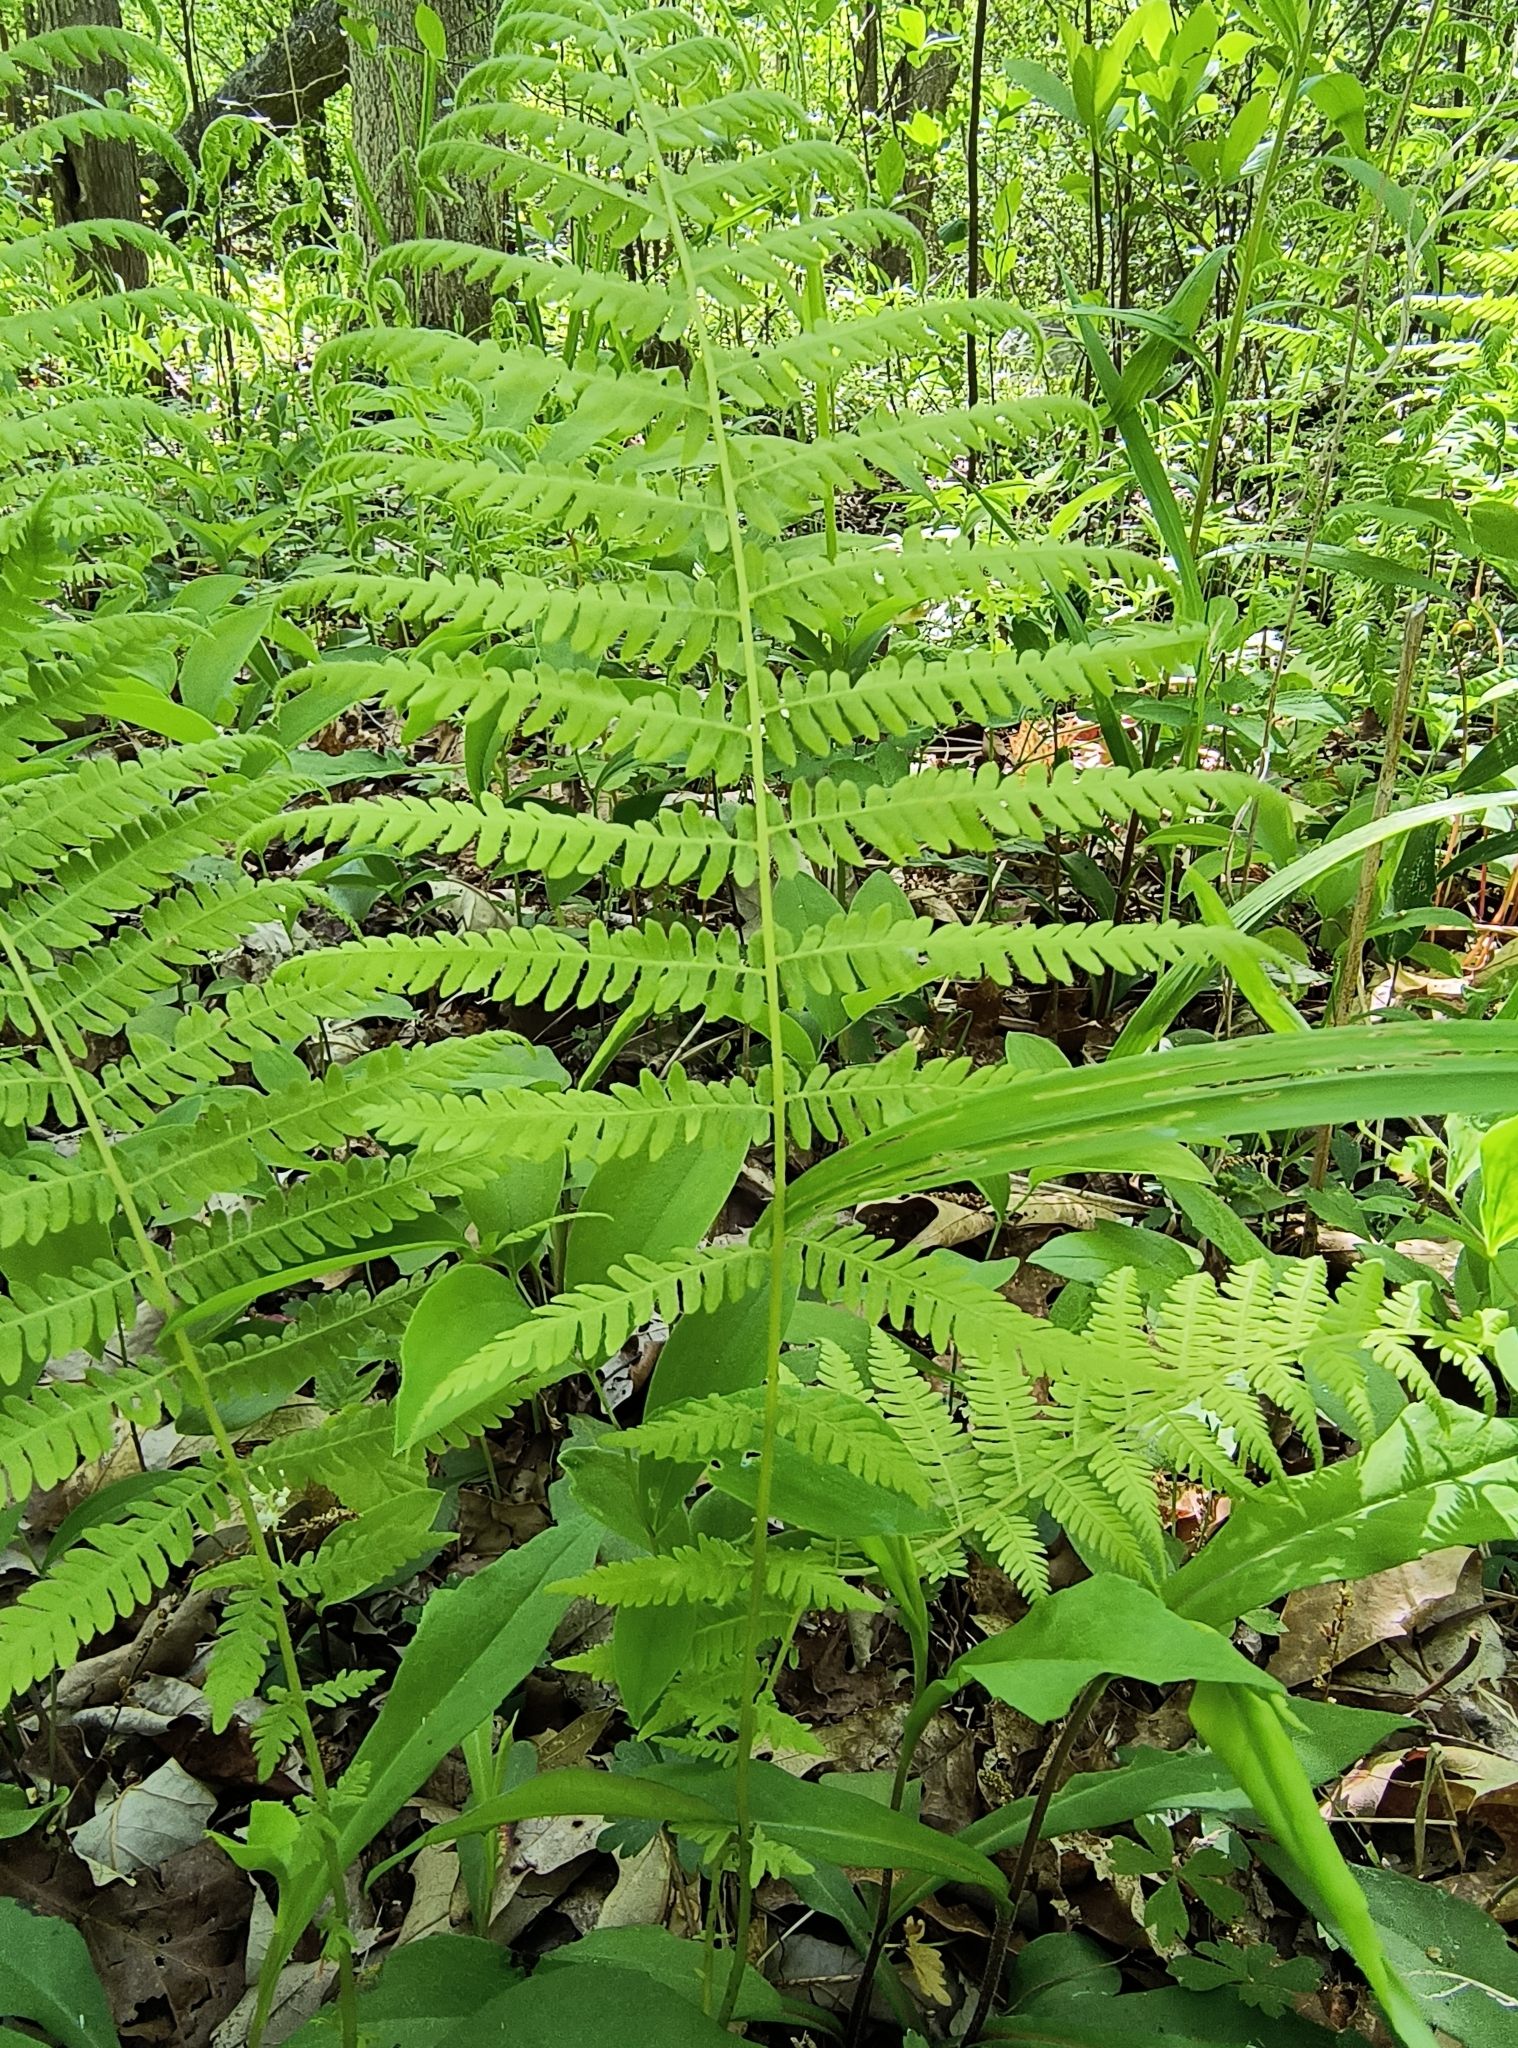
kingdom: Plantae
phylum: Tracheophyta
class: Polypodiopsida
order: Polypodiales
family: Thelypteridaceae
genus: Amauropelta
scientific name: Amauropelta noveboracensis
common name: New york fern
